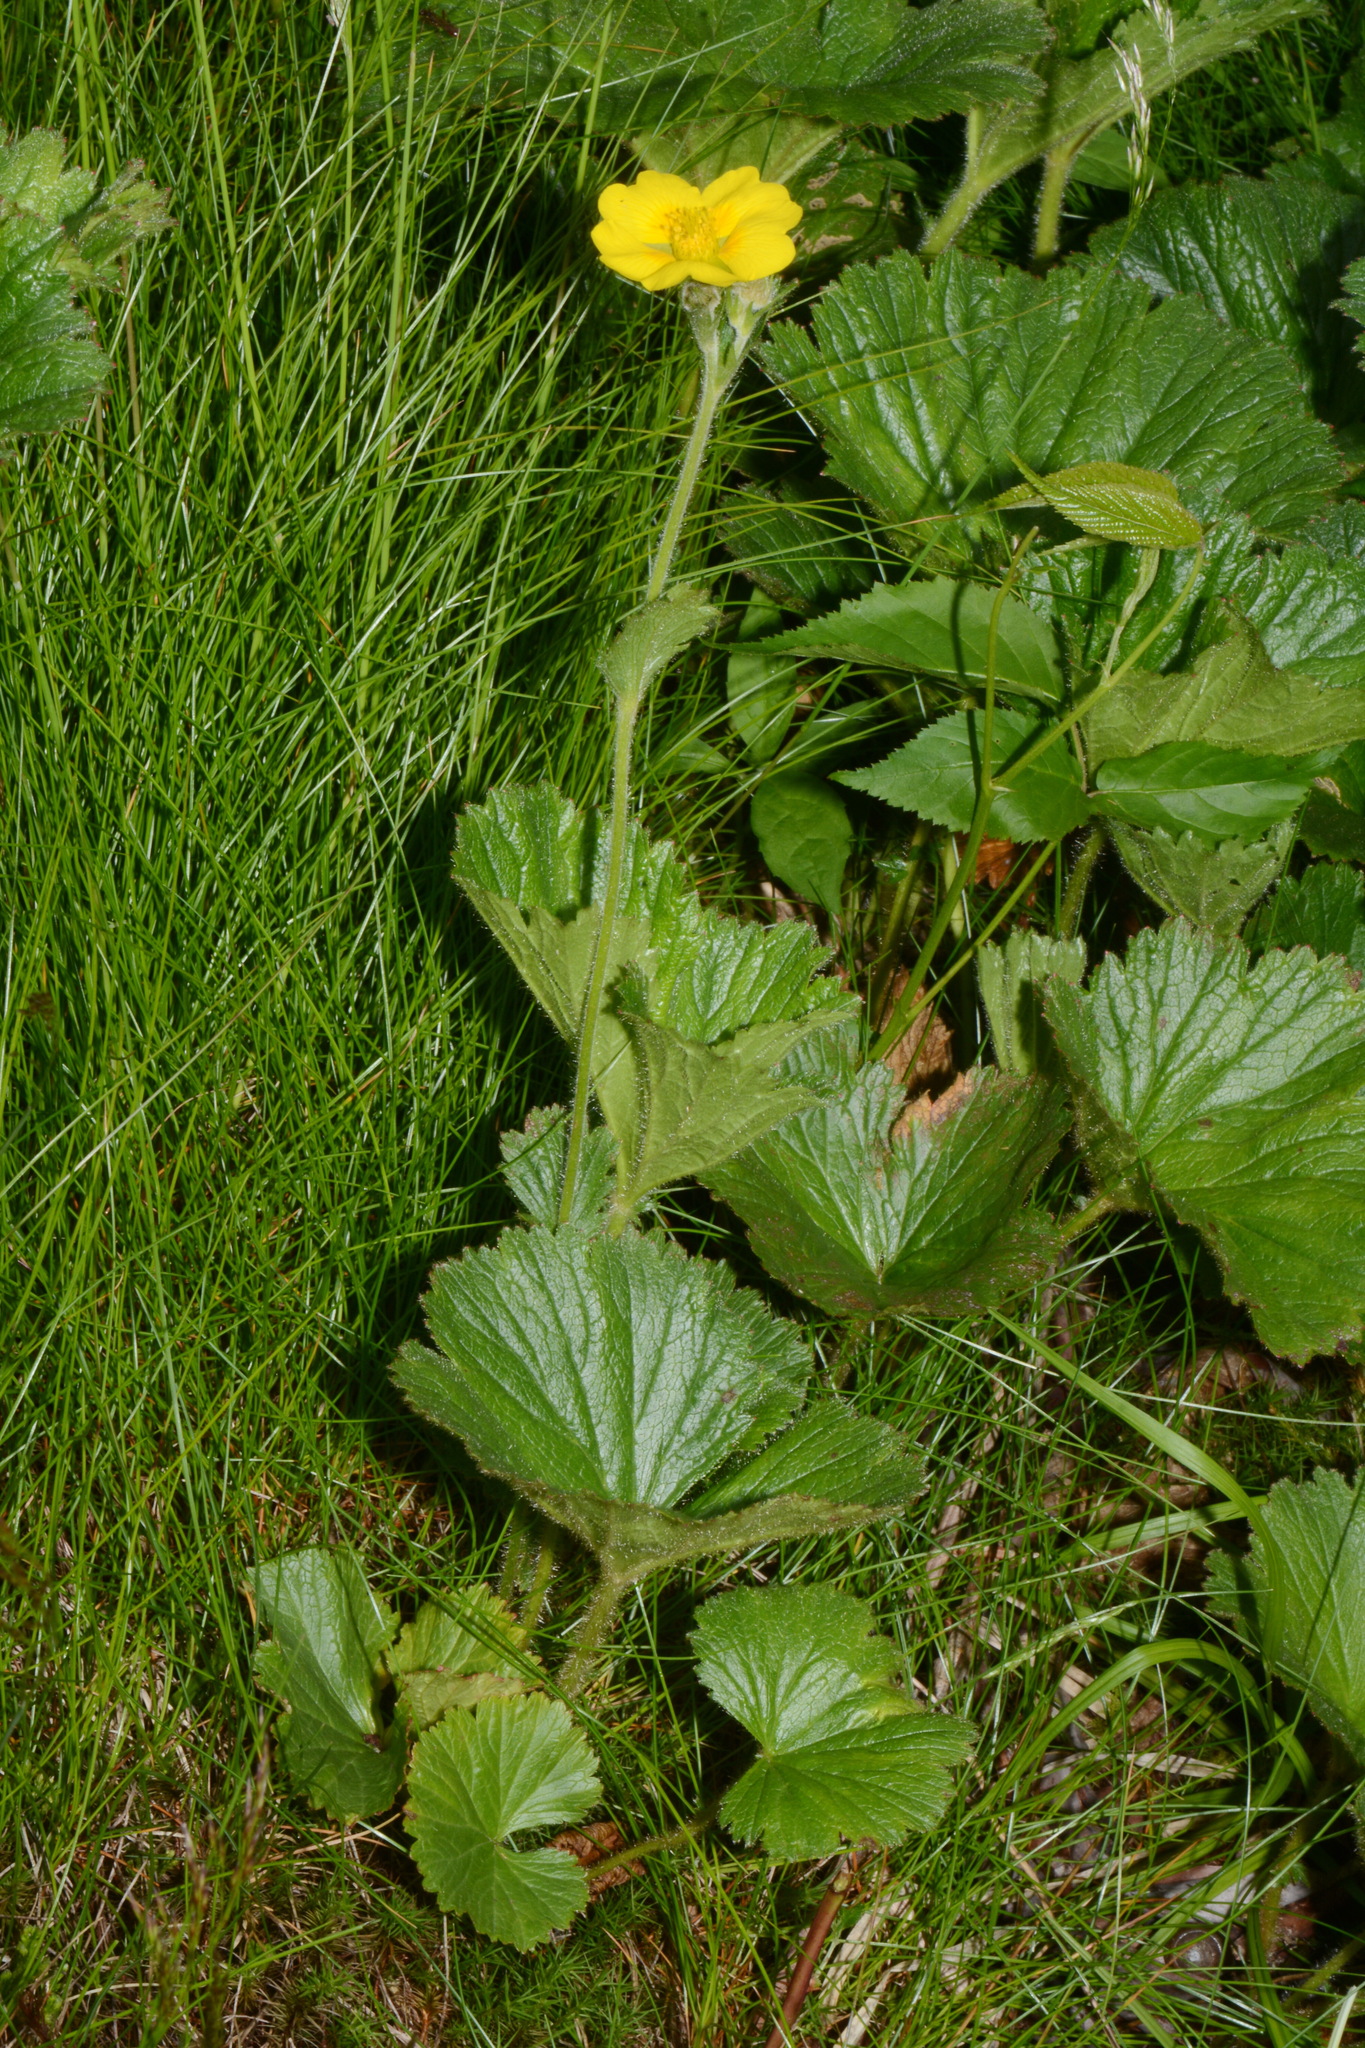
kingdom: Plantae
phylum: Tracheophyta
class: Magnoliopsida
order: Rosales
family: Rosaceae
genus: Geum
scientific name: Geum radiatum
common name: Spreaded avens
